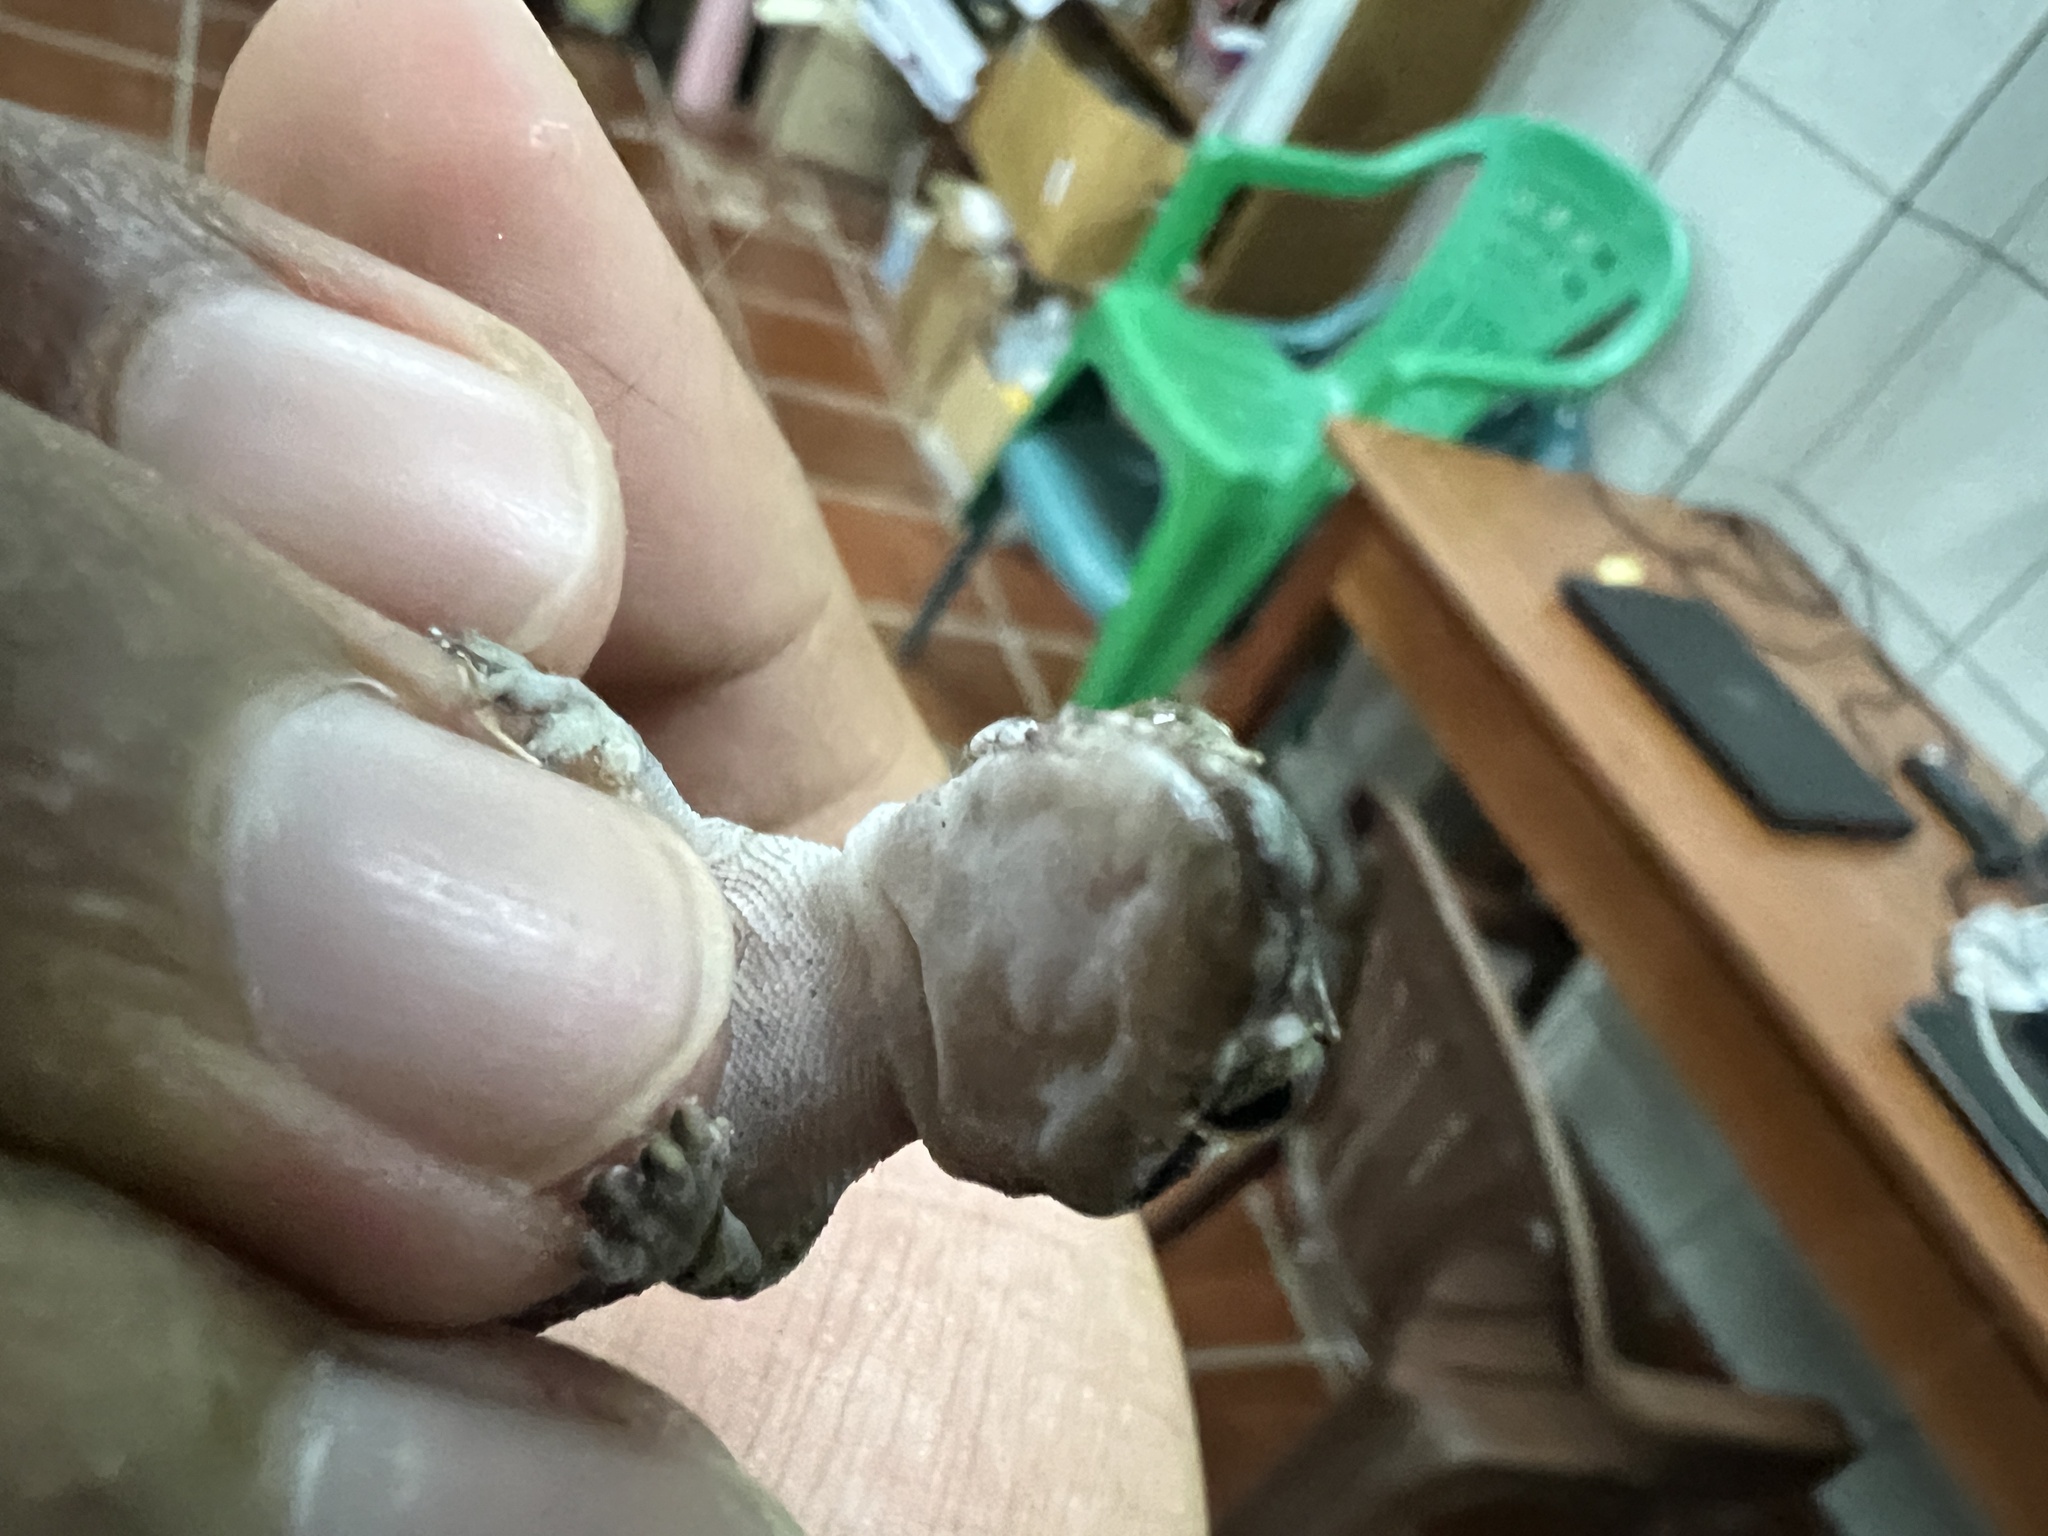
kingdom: Animalia
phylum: Chordata
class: Squamata
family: Gekkonidae
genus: Hemidactylus
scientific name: Hemidactylus mabouia
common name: House gecko
